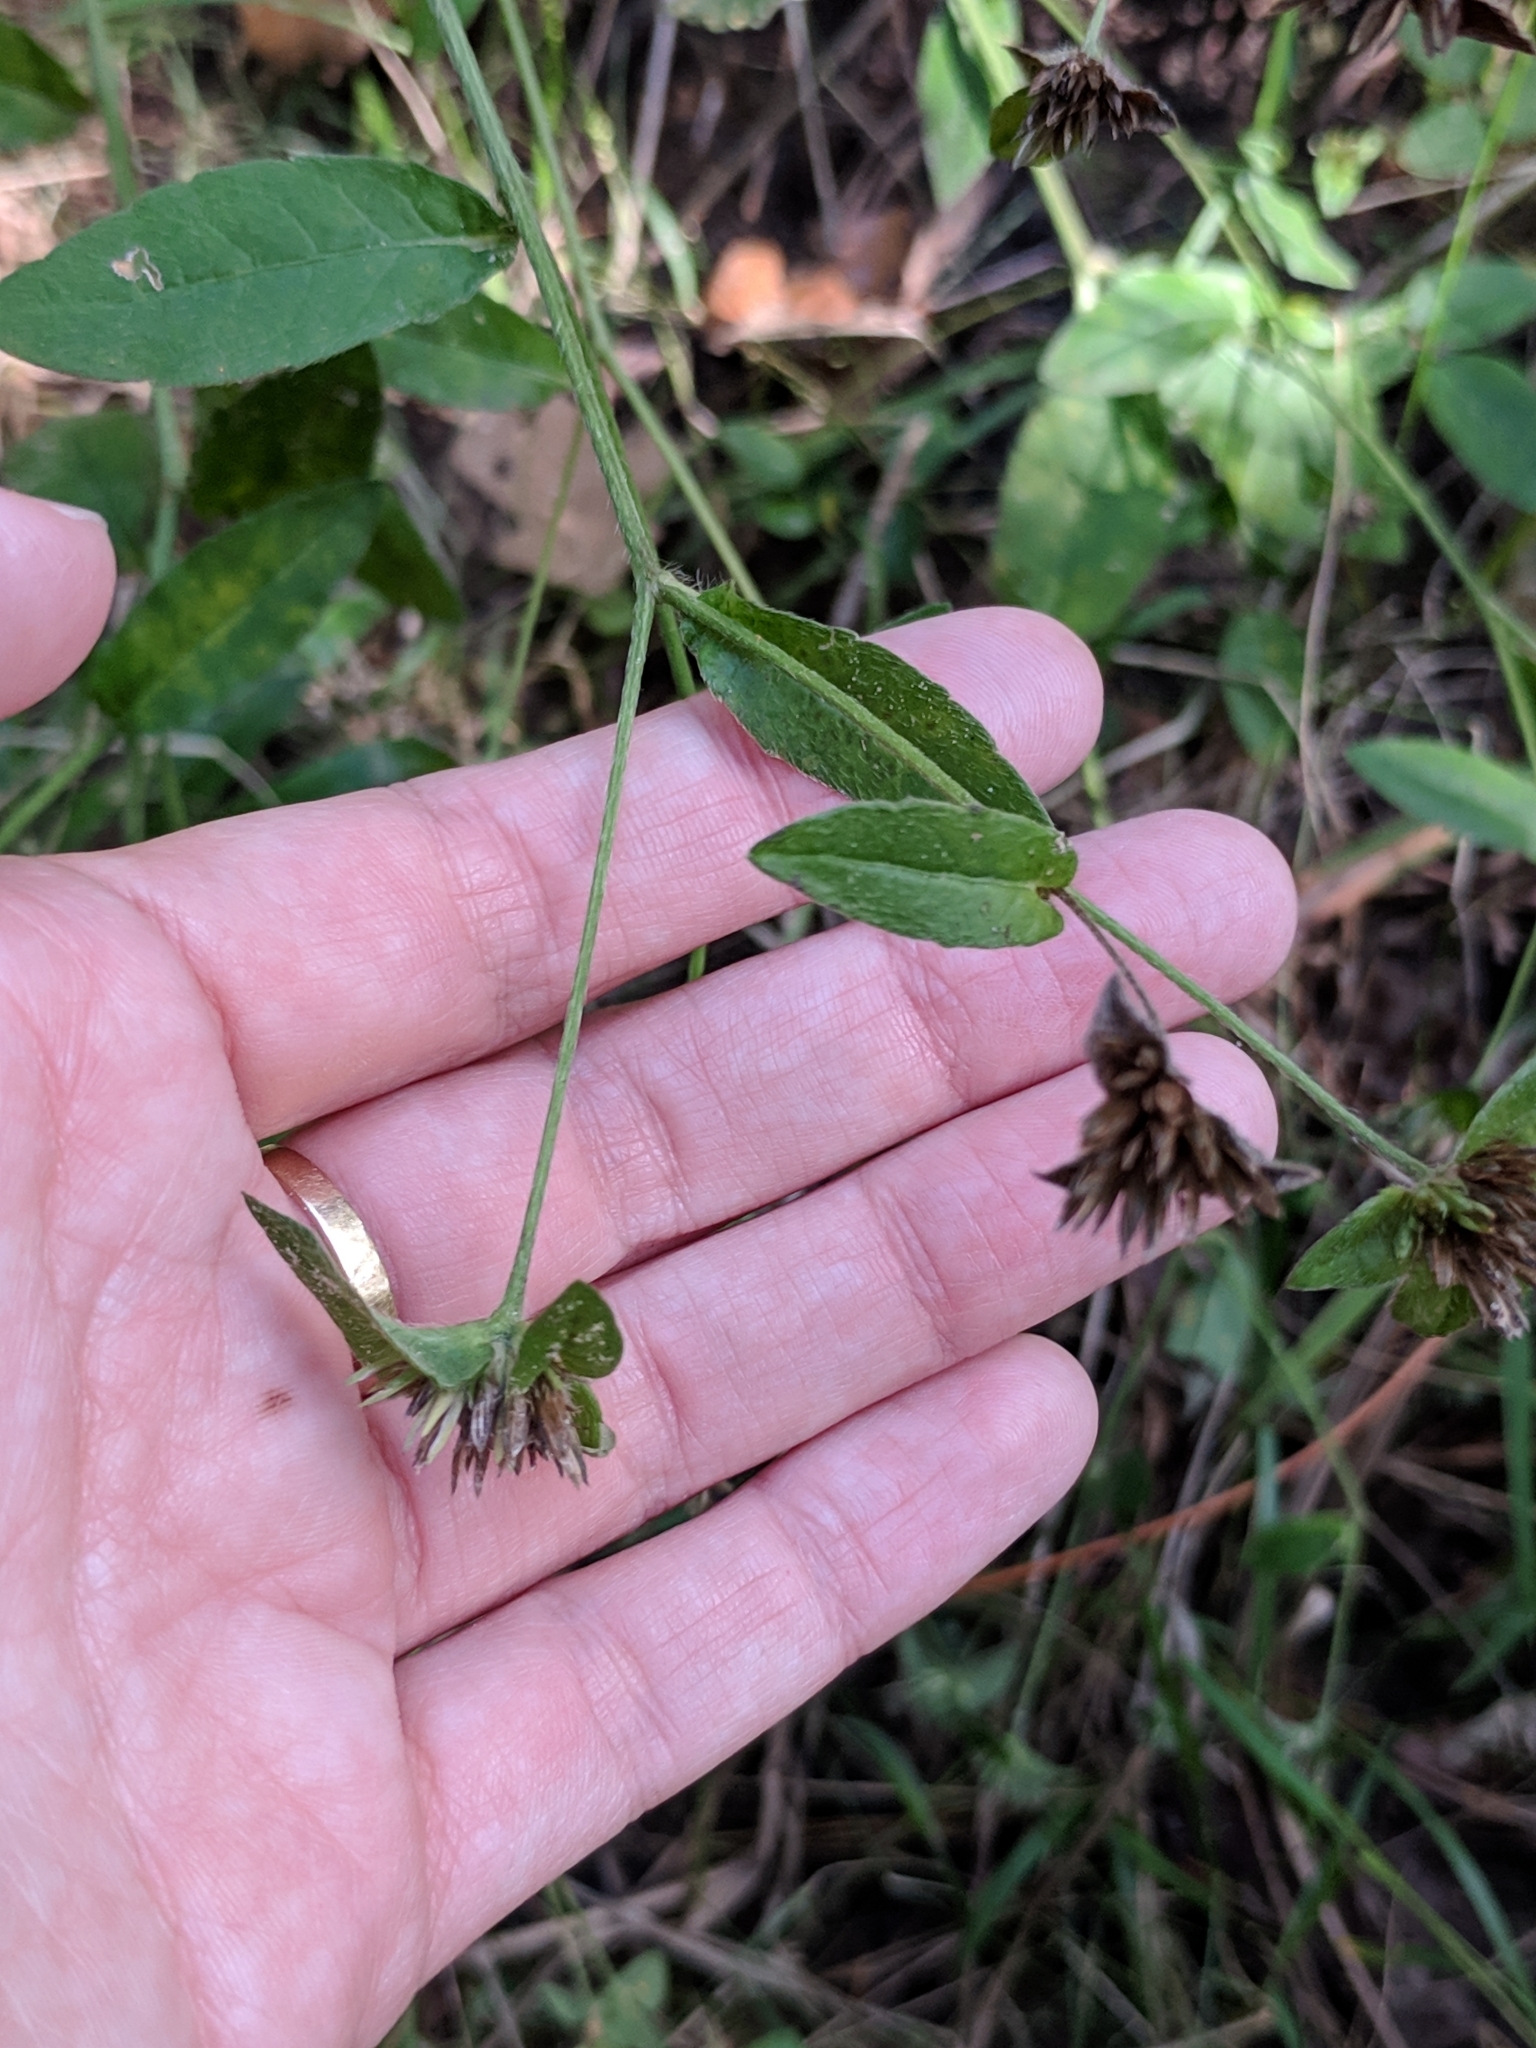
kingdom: Plantae
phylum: Tracheophyta
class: Magnoliopsida
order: Asterales
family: Asteraceae
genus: Elephantopus
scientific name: Elephantopus carolinianus
